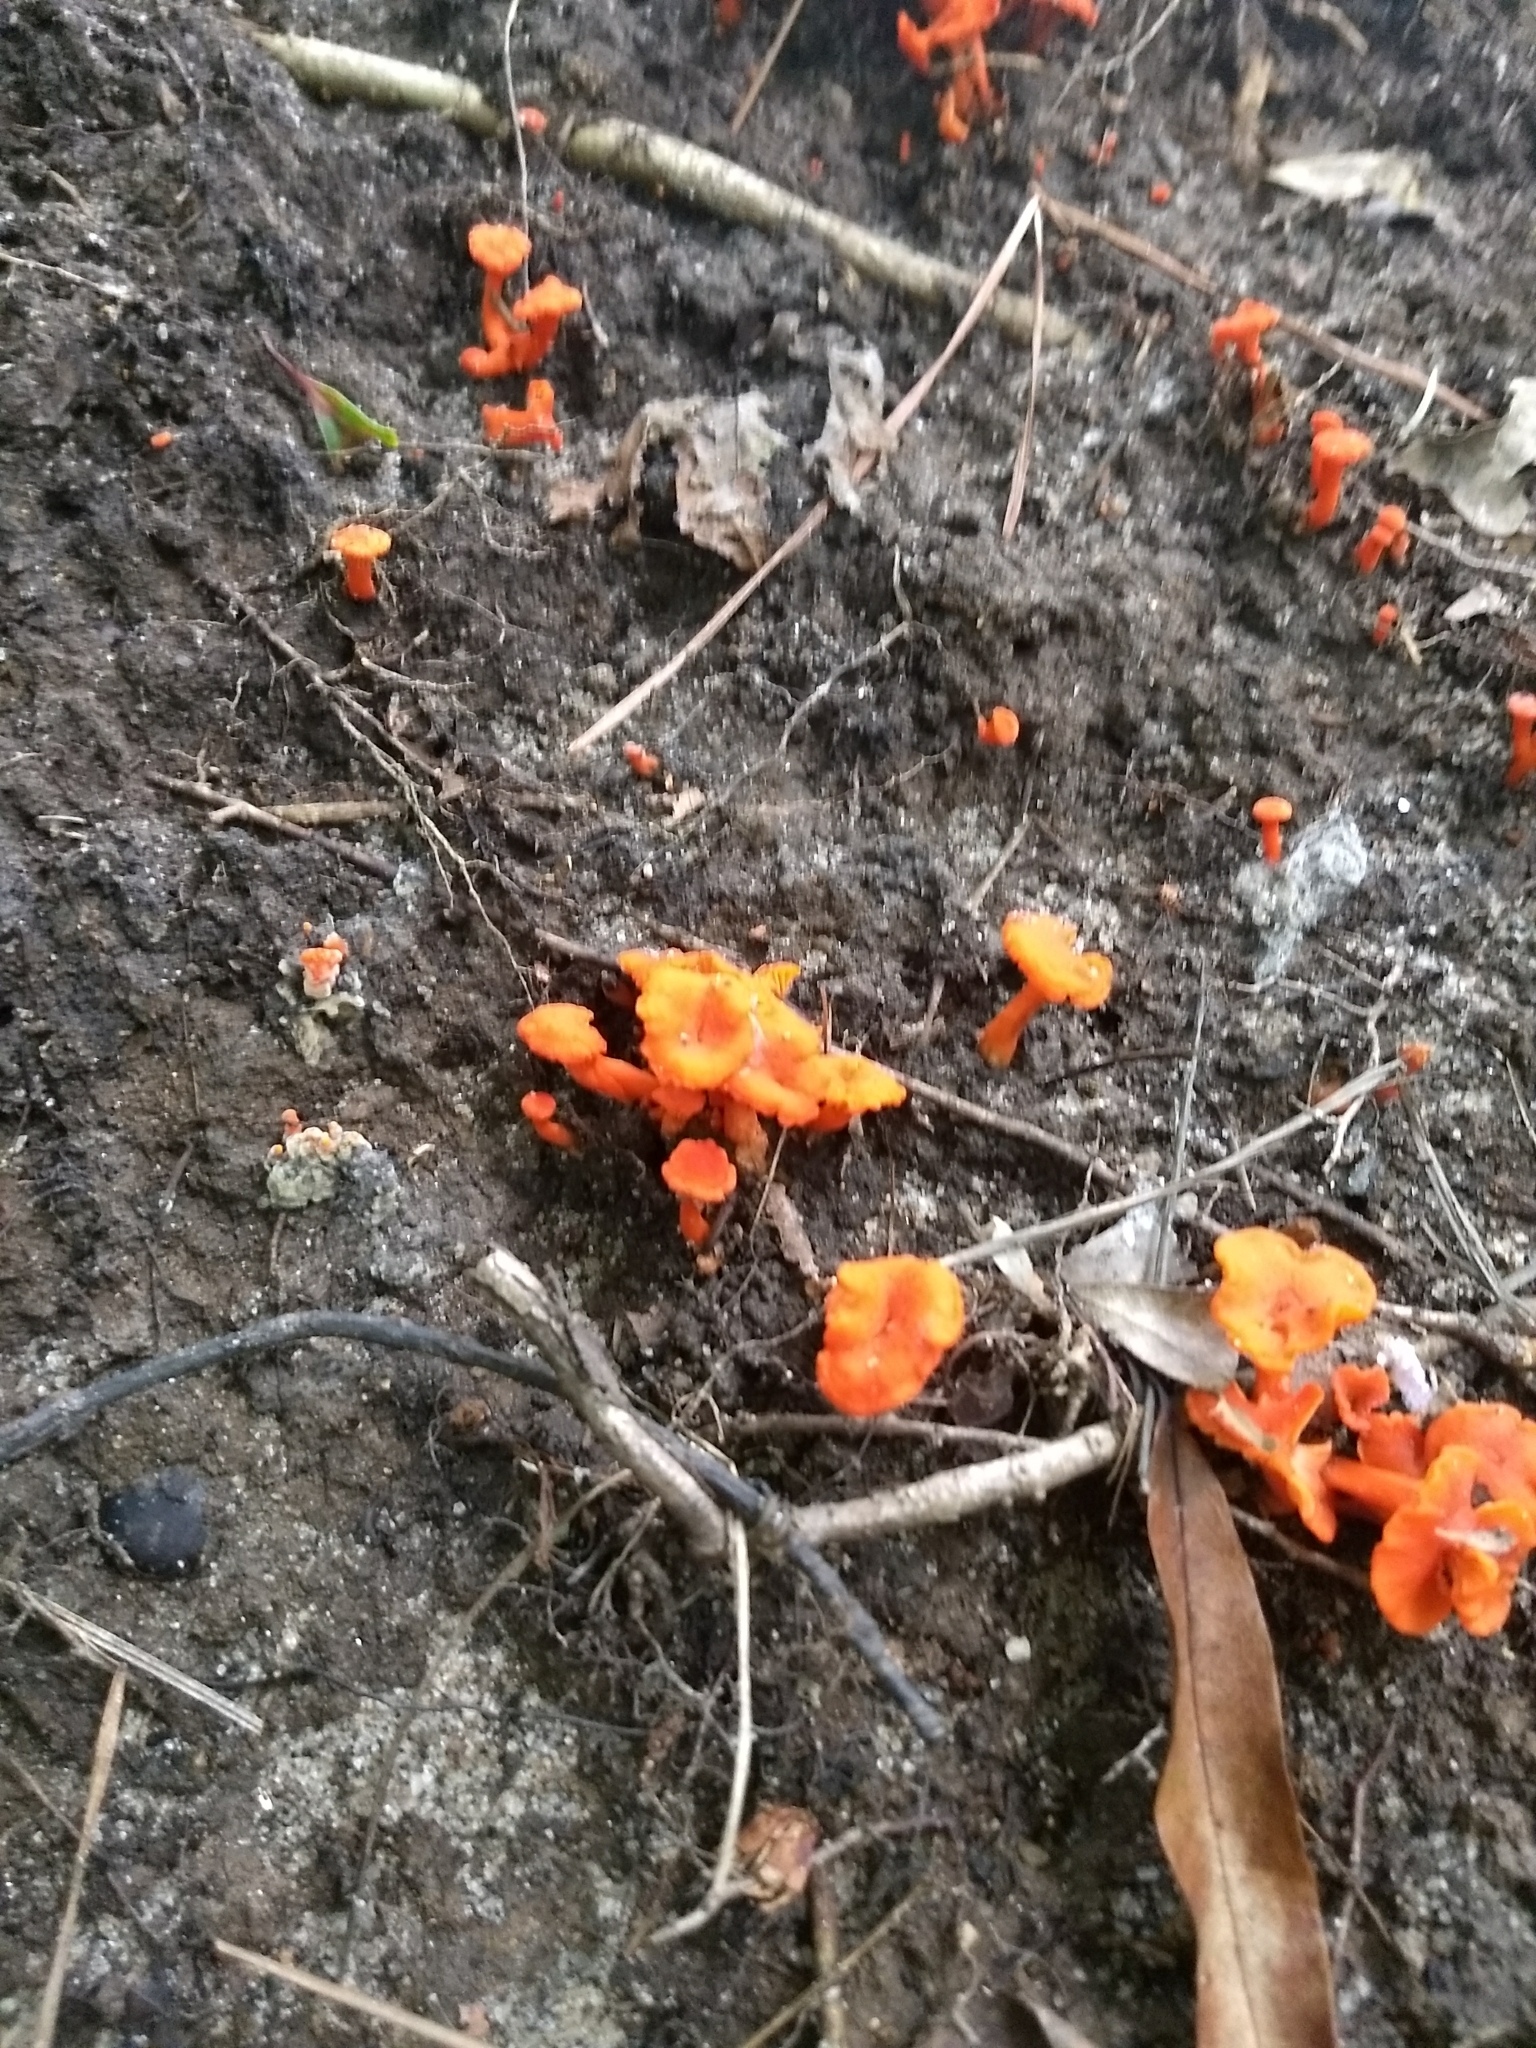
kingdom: Fungi
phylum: Basidiomycota
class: Agaricomycetes
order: Cantharellales
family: Hydnaceae
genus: Cantharellus
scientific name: Cantharellus cinnabarinus
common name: Cinnabar chanterelle
